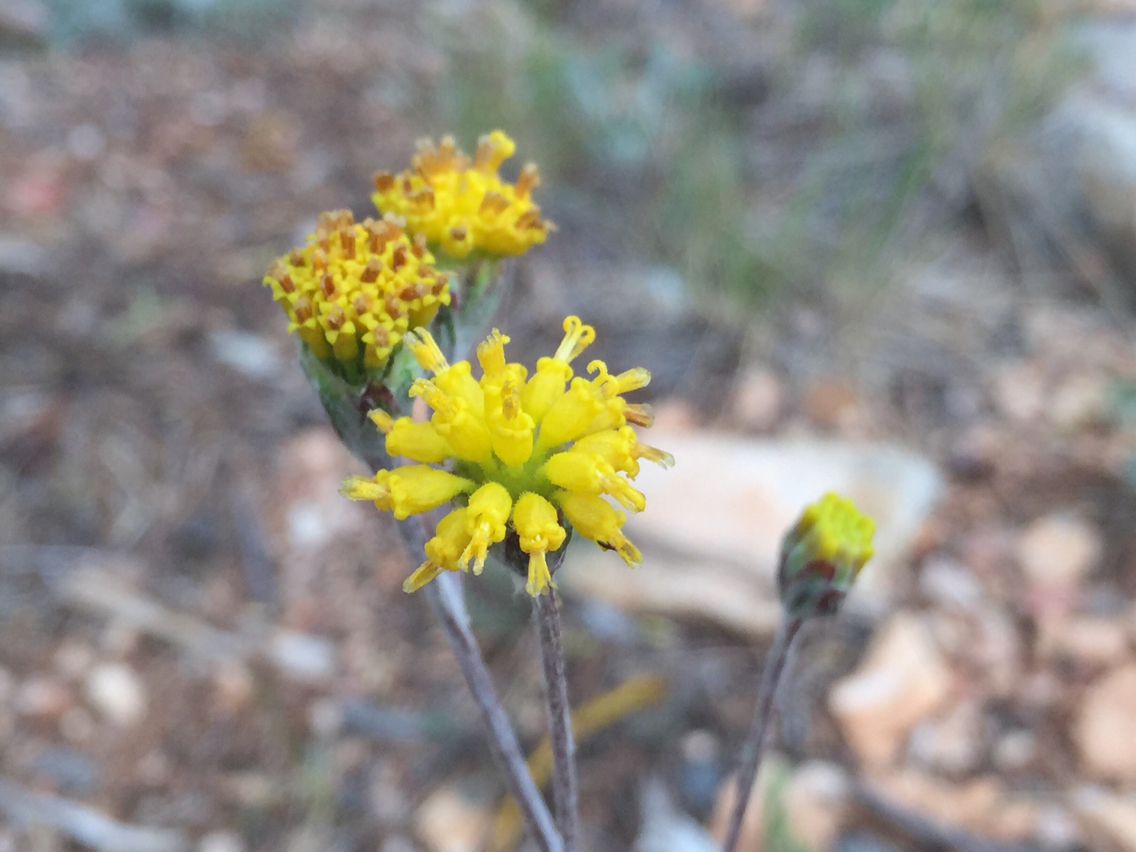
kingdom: Plantae
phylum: Tracheophyta
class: Magnoliopsida
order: Asterales
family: Asteraceae
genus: Hymenopappus
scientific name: Hymenopappus filifolius
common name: Columbia cutleaf
